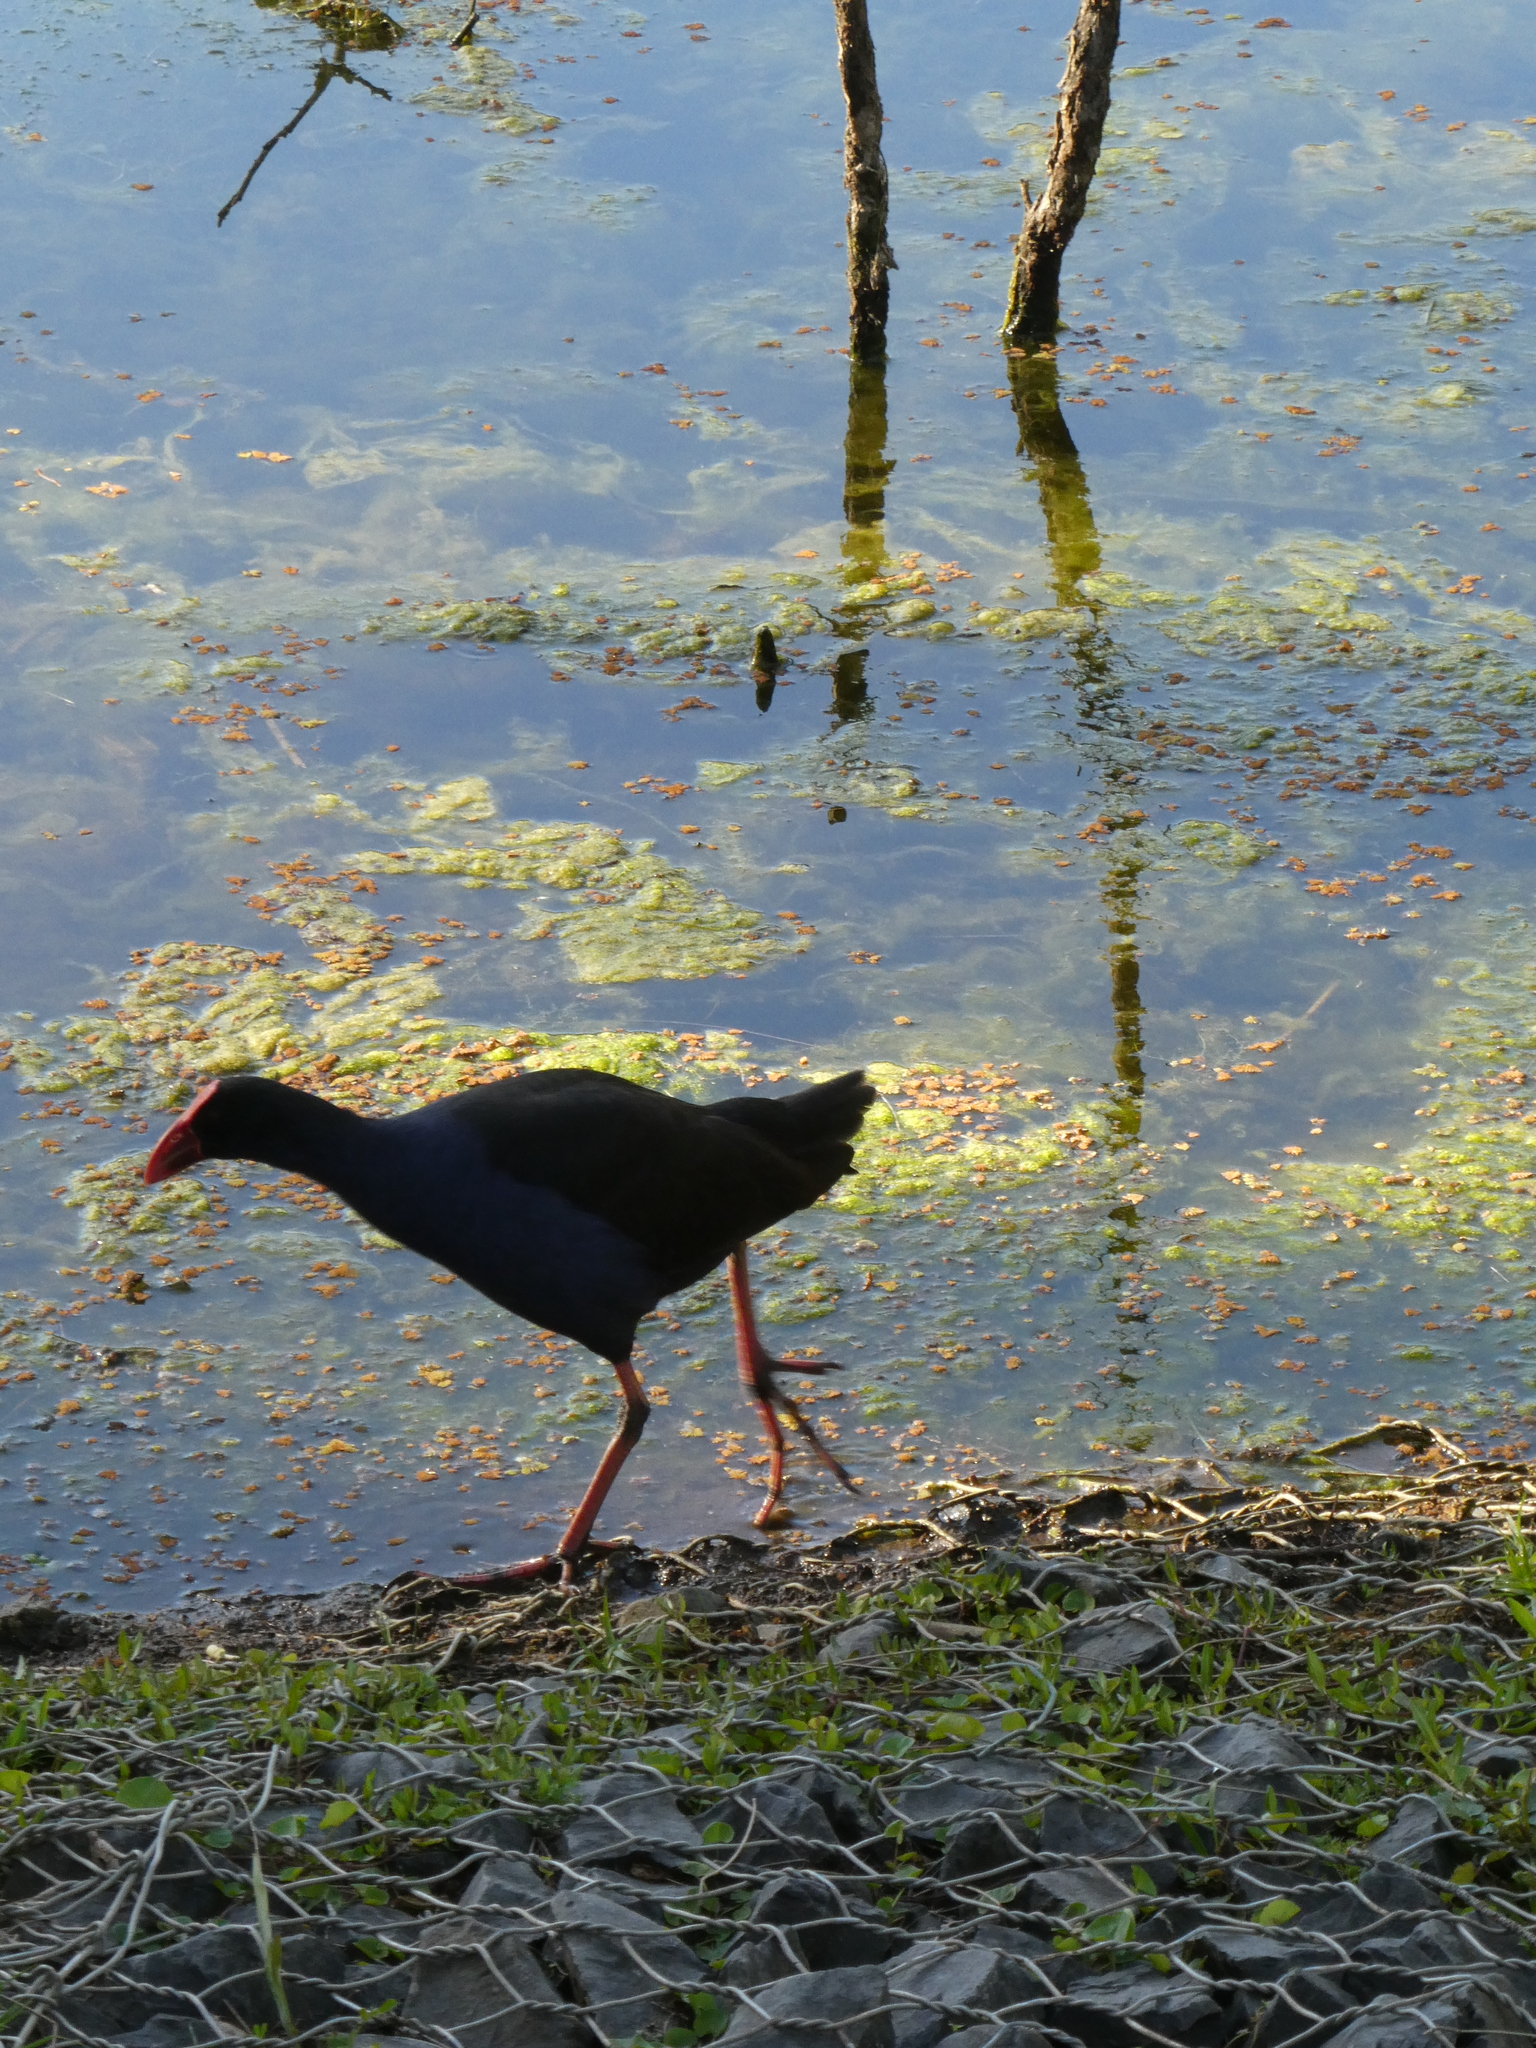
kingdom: Animalia
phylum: Chordata
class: Aves
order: Gruiformes
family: Rallidae
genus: Porphyrio
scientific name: Porphyrio melanotus
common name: Australasian swamphen
